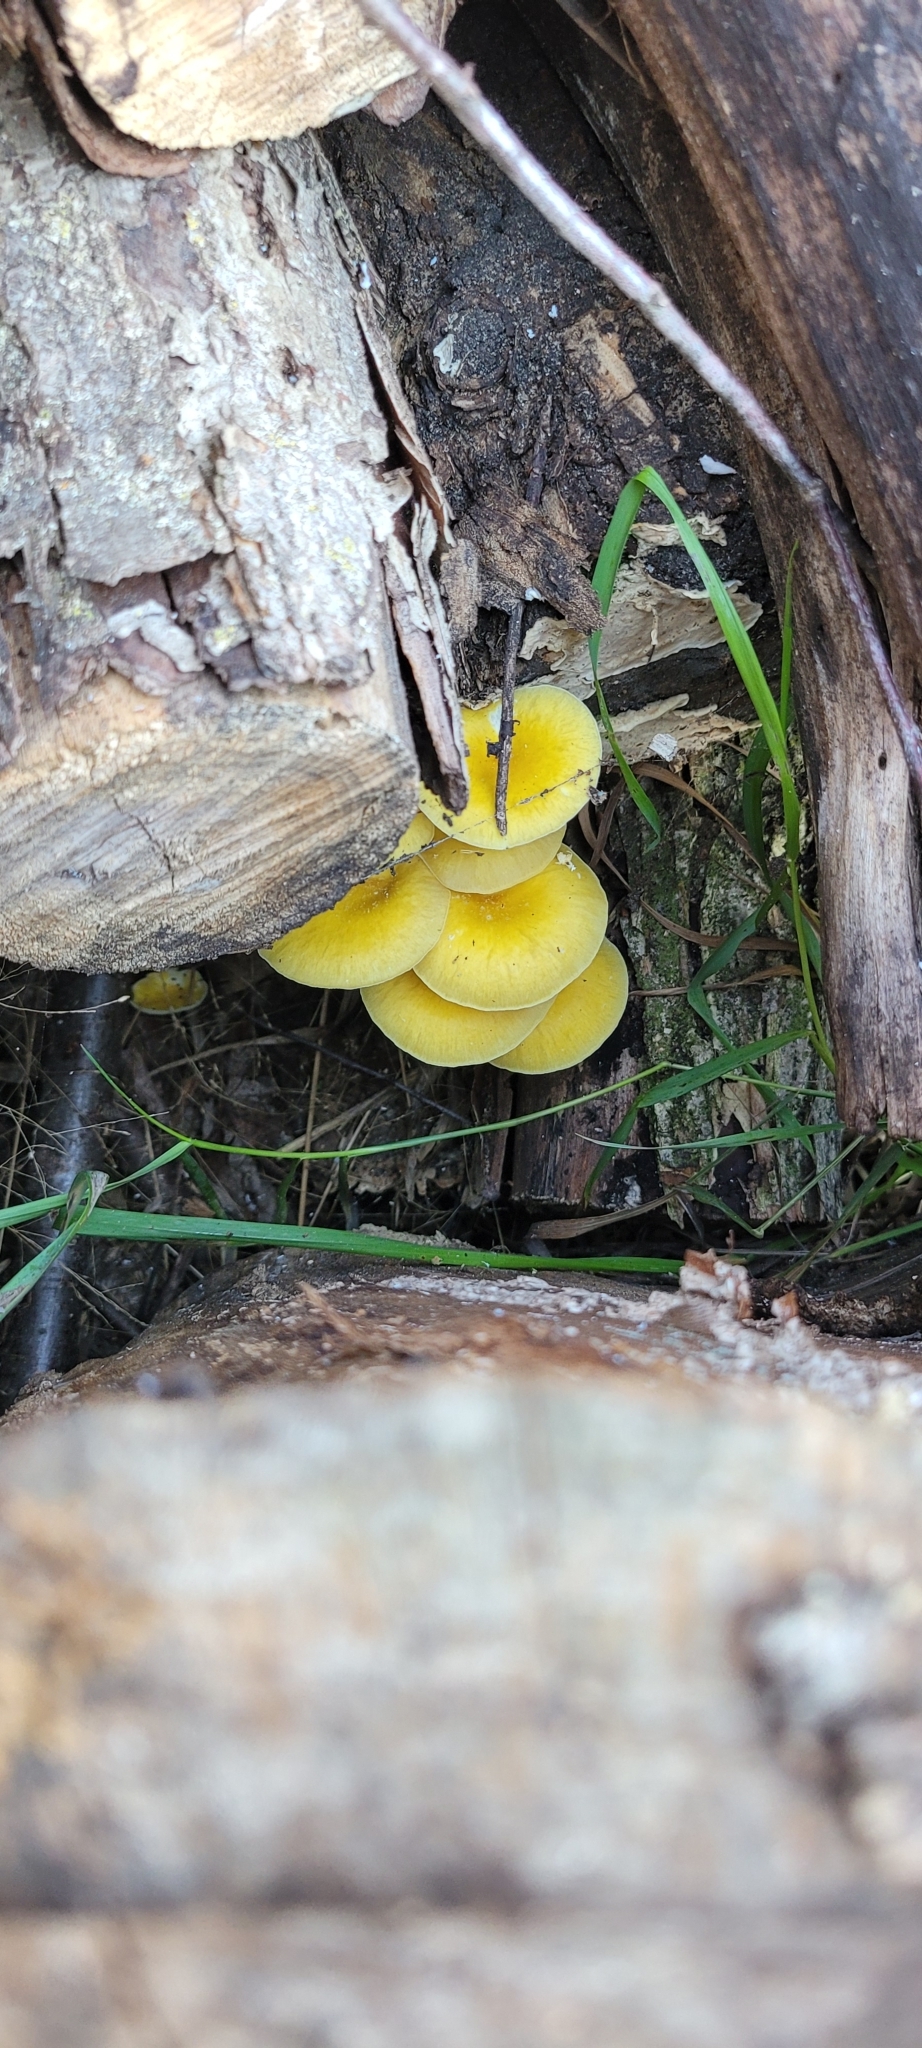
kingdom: Fungi
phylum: Basidiomycota
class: Agaricomycetes
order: Agaricales
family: Pleurotaceae
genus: Pleurotus
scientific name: Pleurotus citrinopileatus
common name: Golden oyster mushroom
